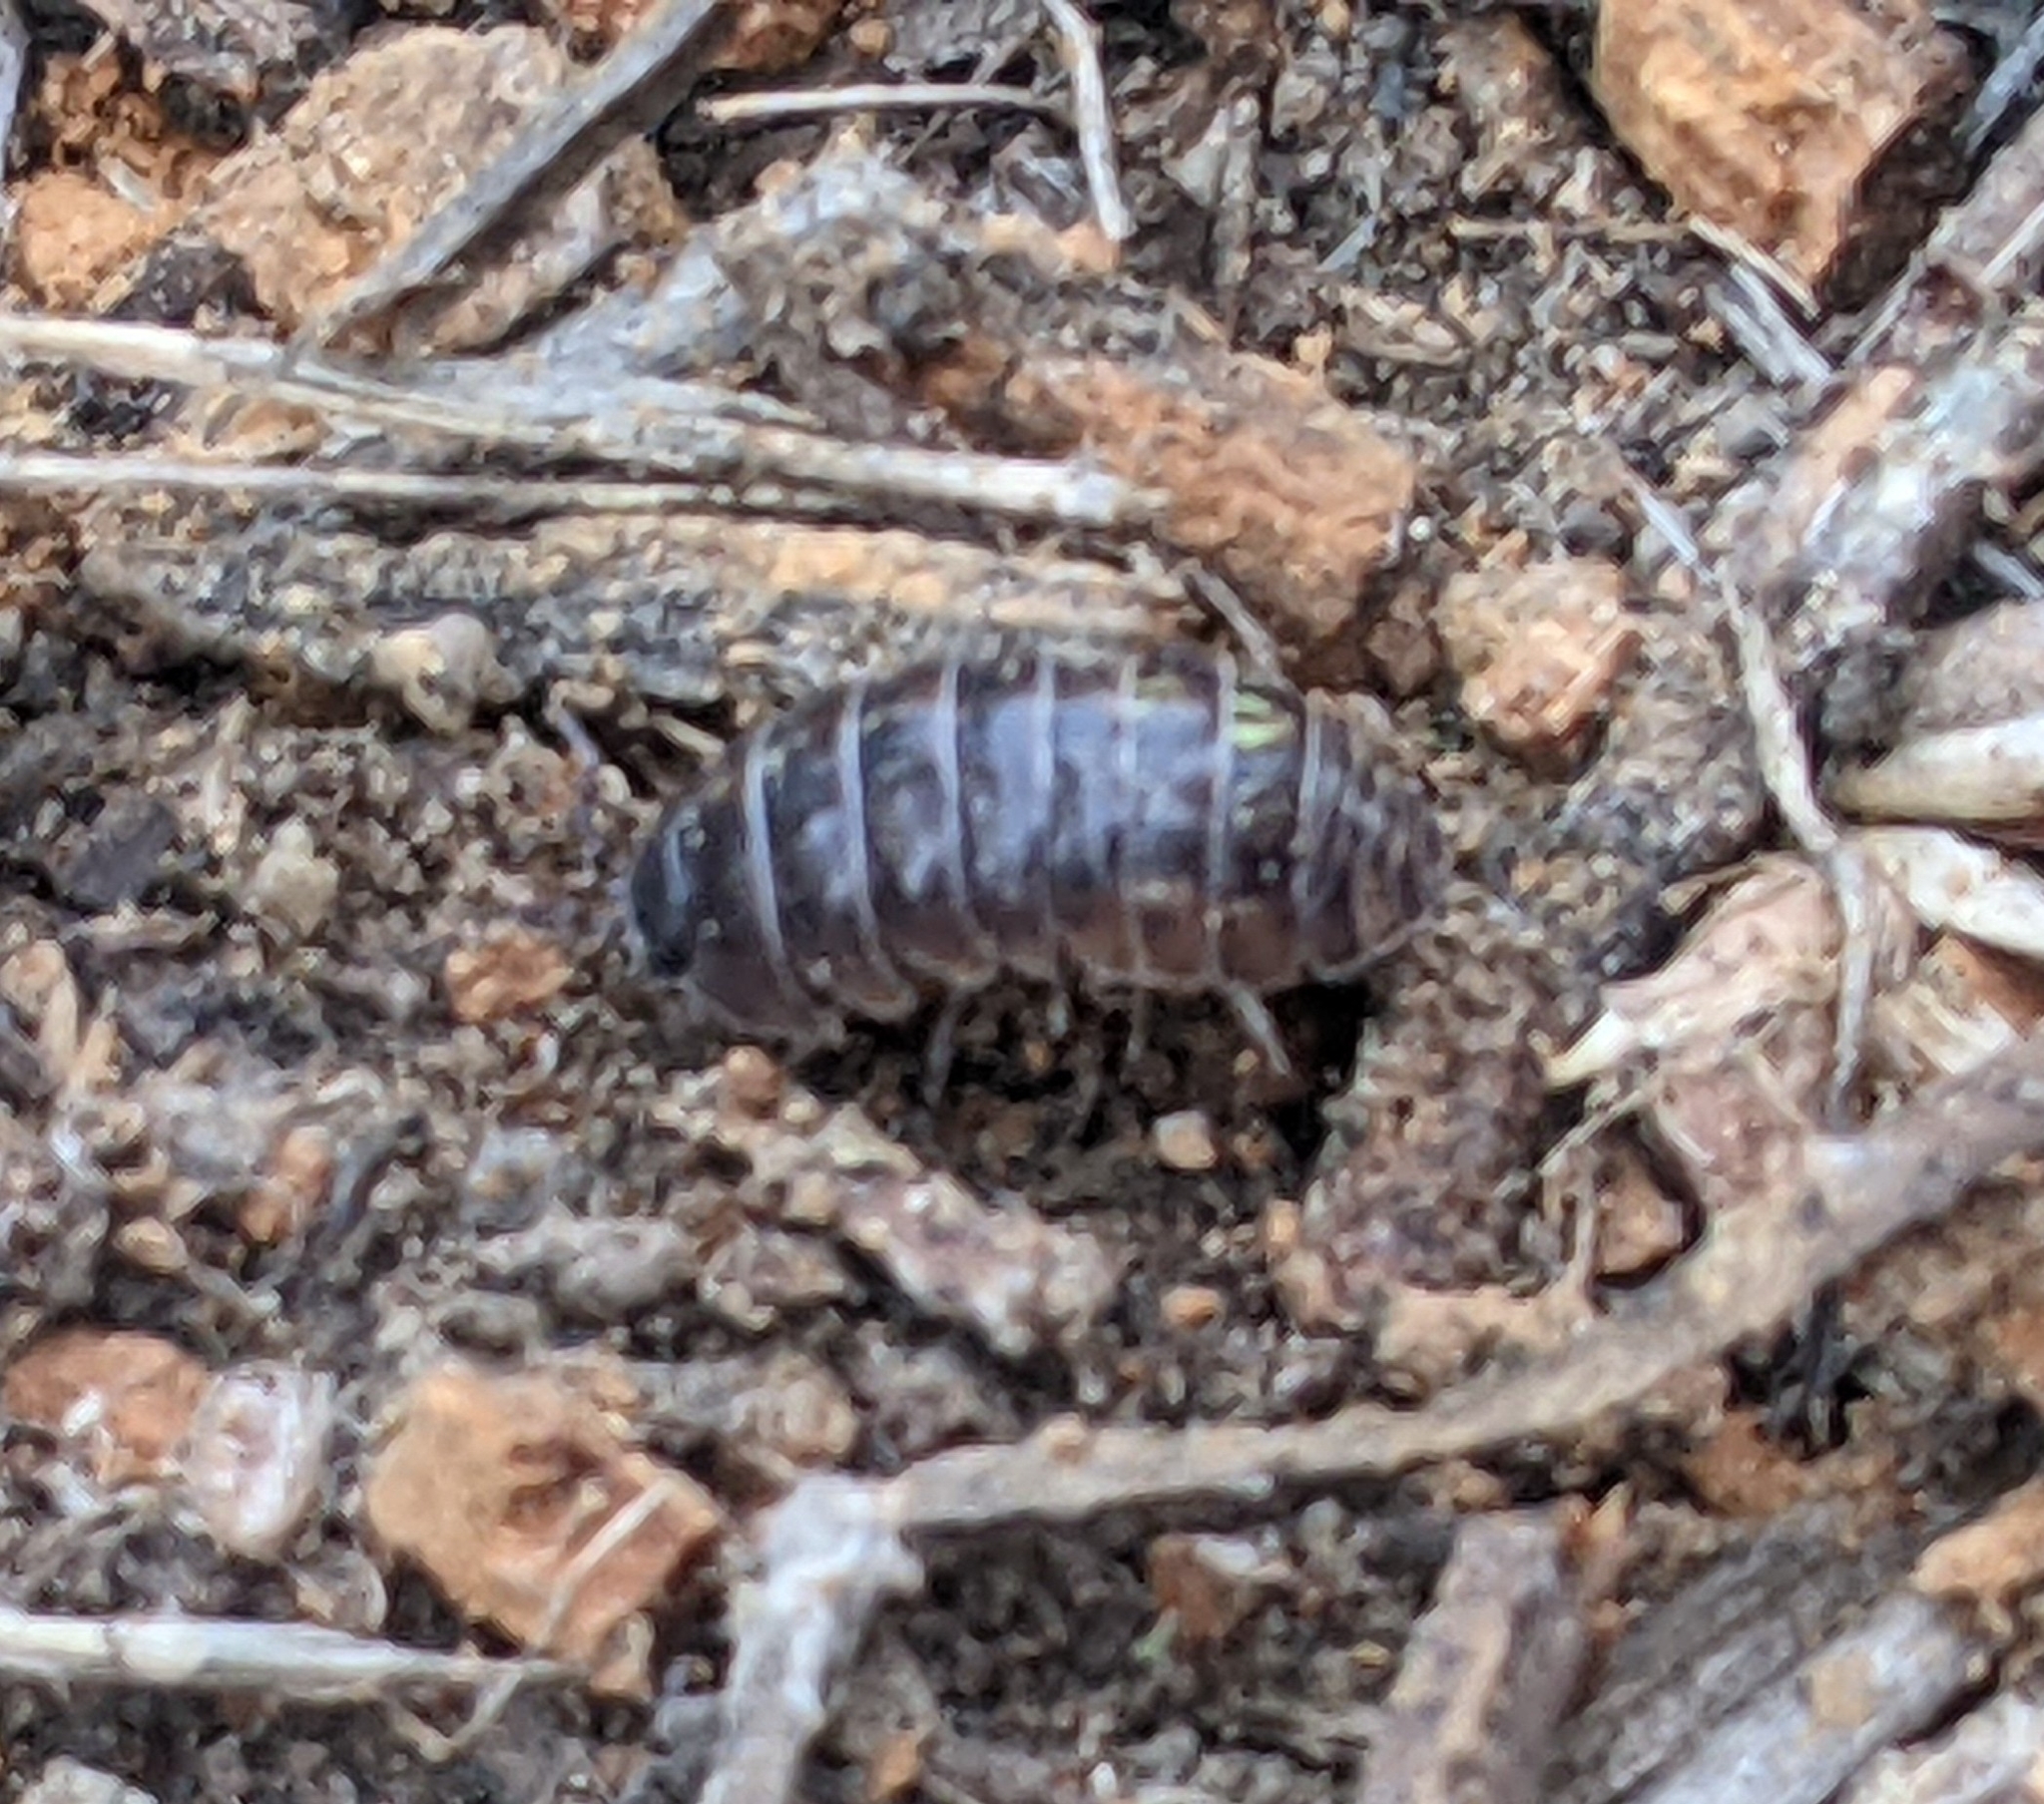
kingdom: Animalia
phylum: Arthropoda
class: Malacostraca
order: Isopoda
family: Armadillidiidae
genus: Armadillidium
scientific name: Armadillidium vulgare
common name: Common pill woodlouse
